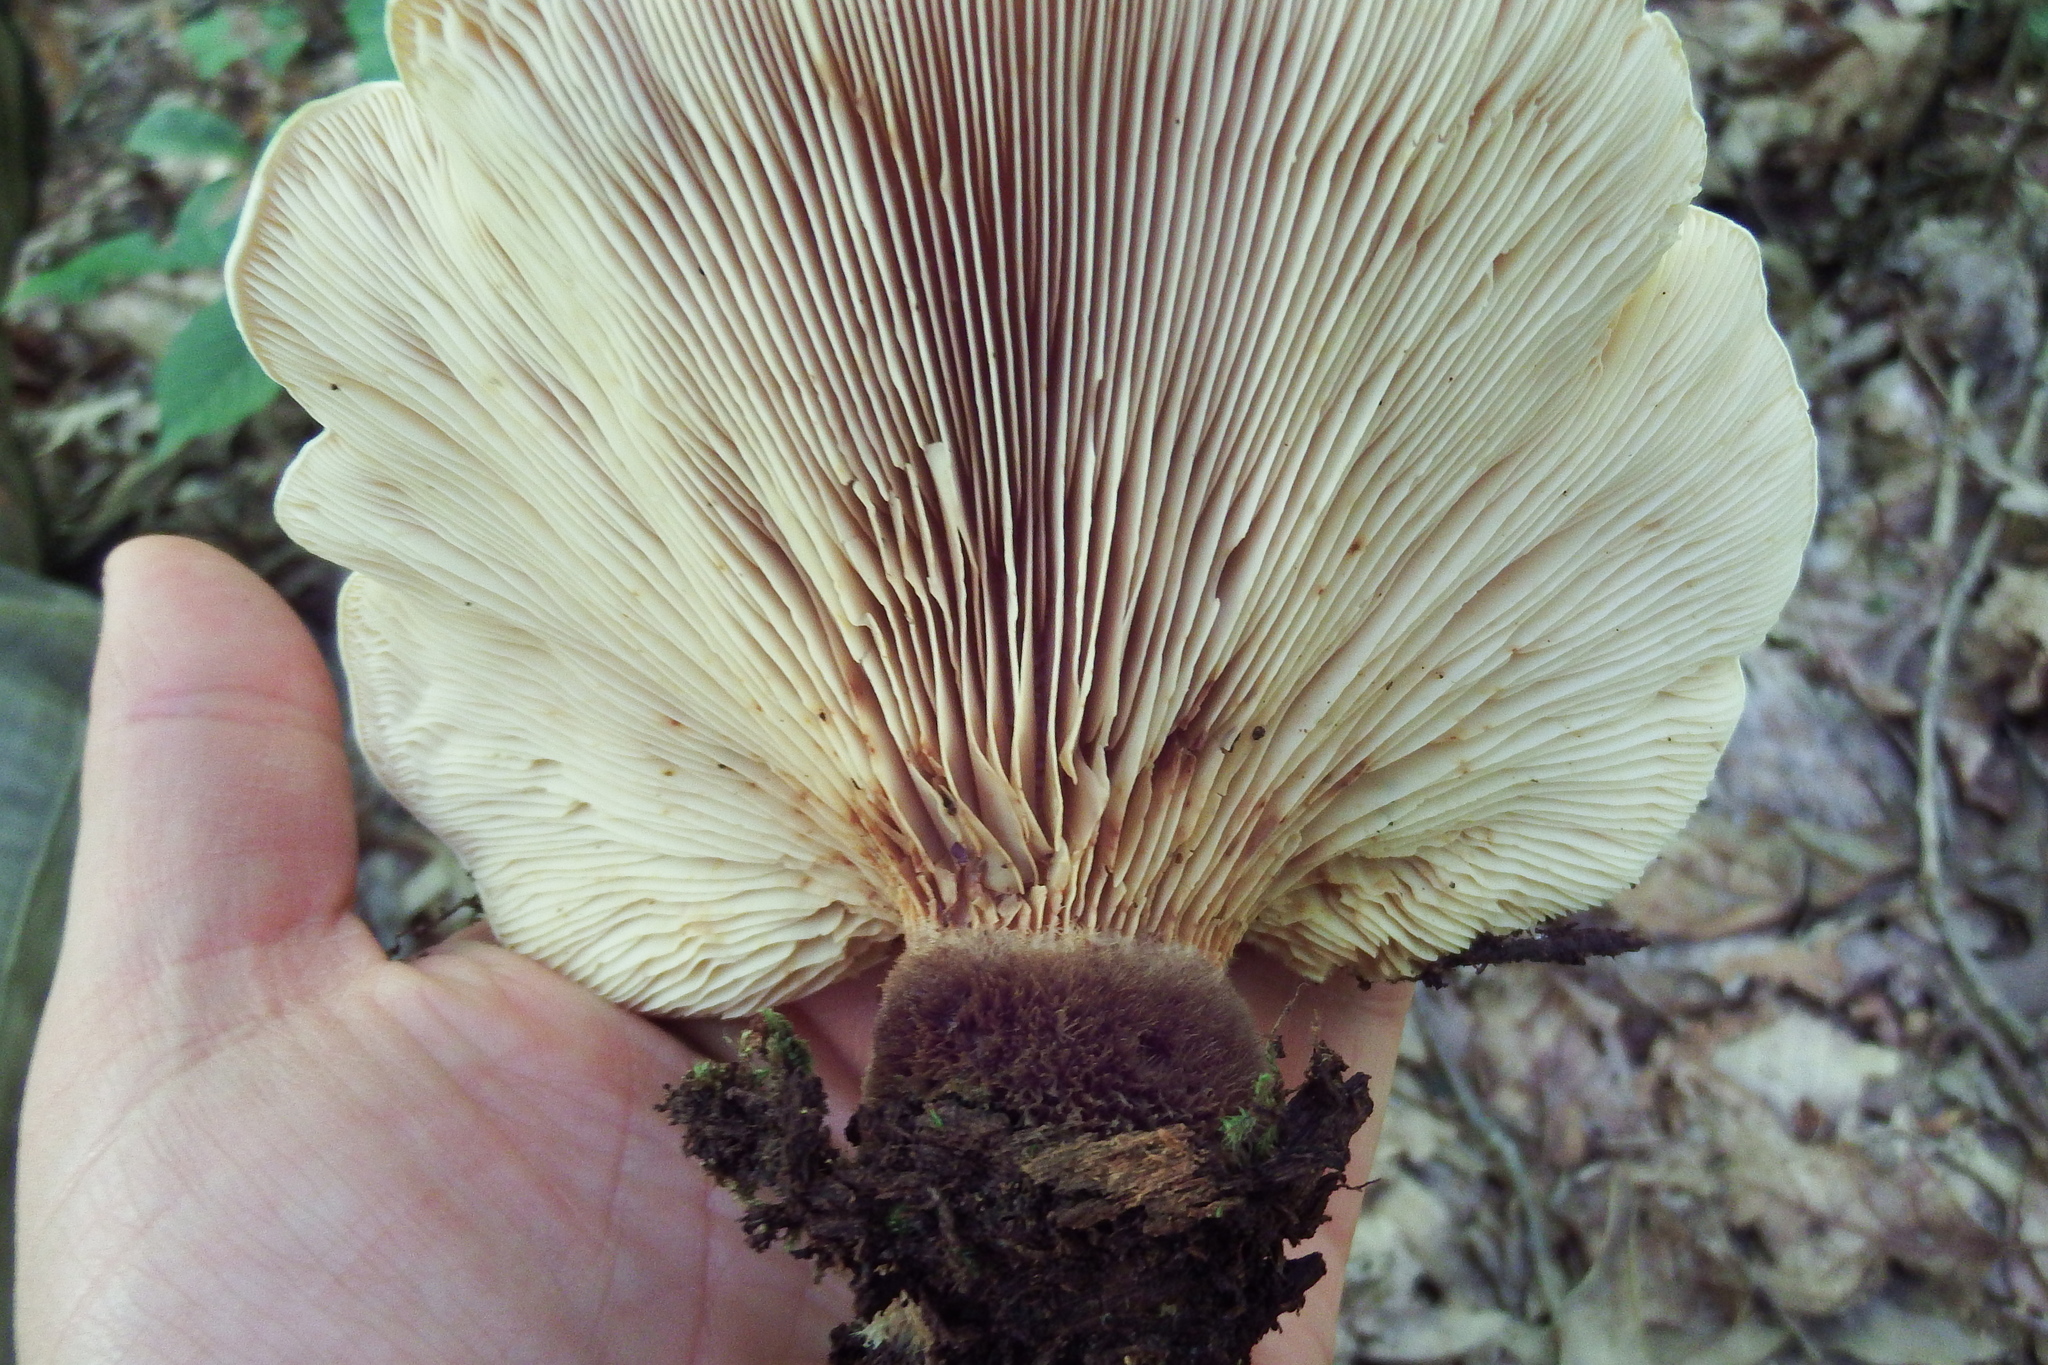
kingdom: Fungi
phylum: Basidiomycota
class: Agaricomycetes
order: Boletales
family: Tapinellaceae
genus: Tapinella
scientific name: Tapinella atrotomentosa
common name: Velvet rollrim
